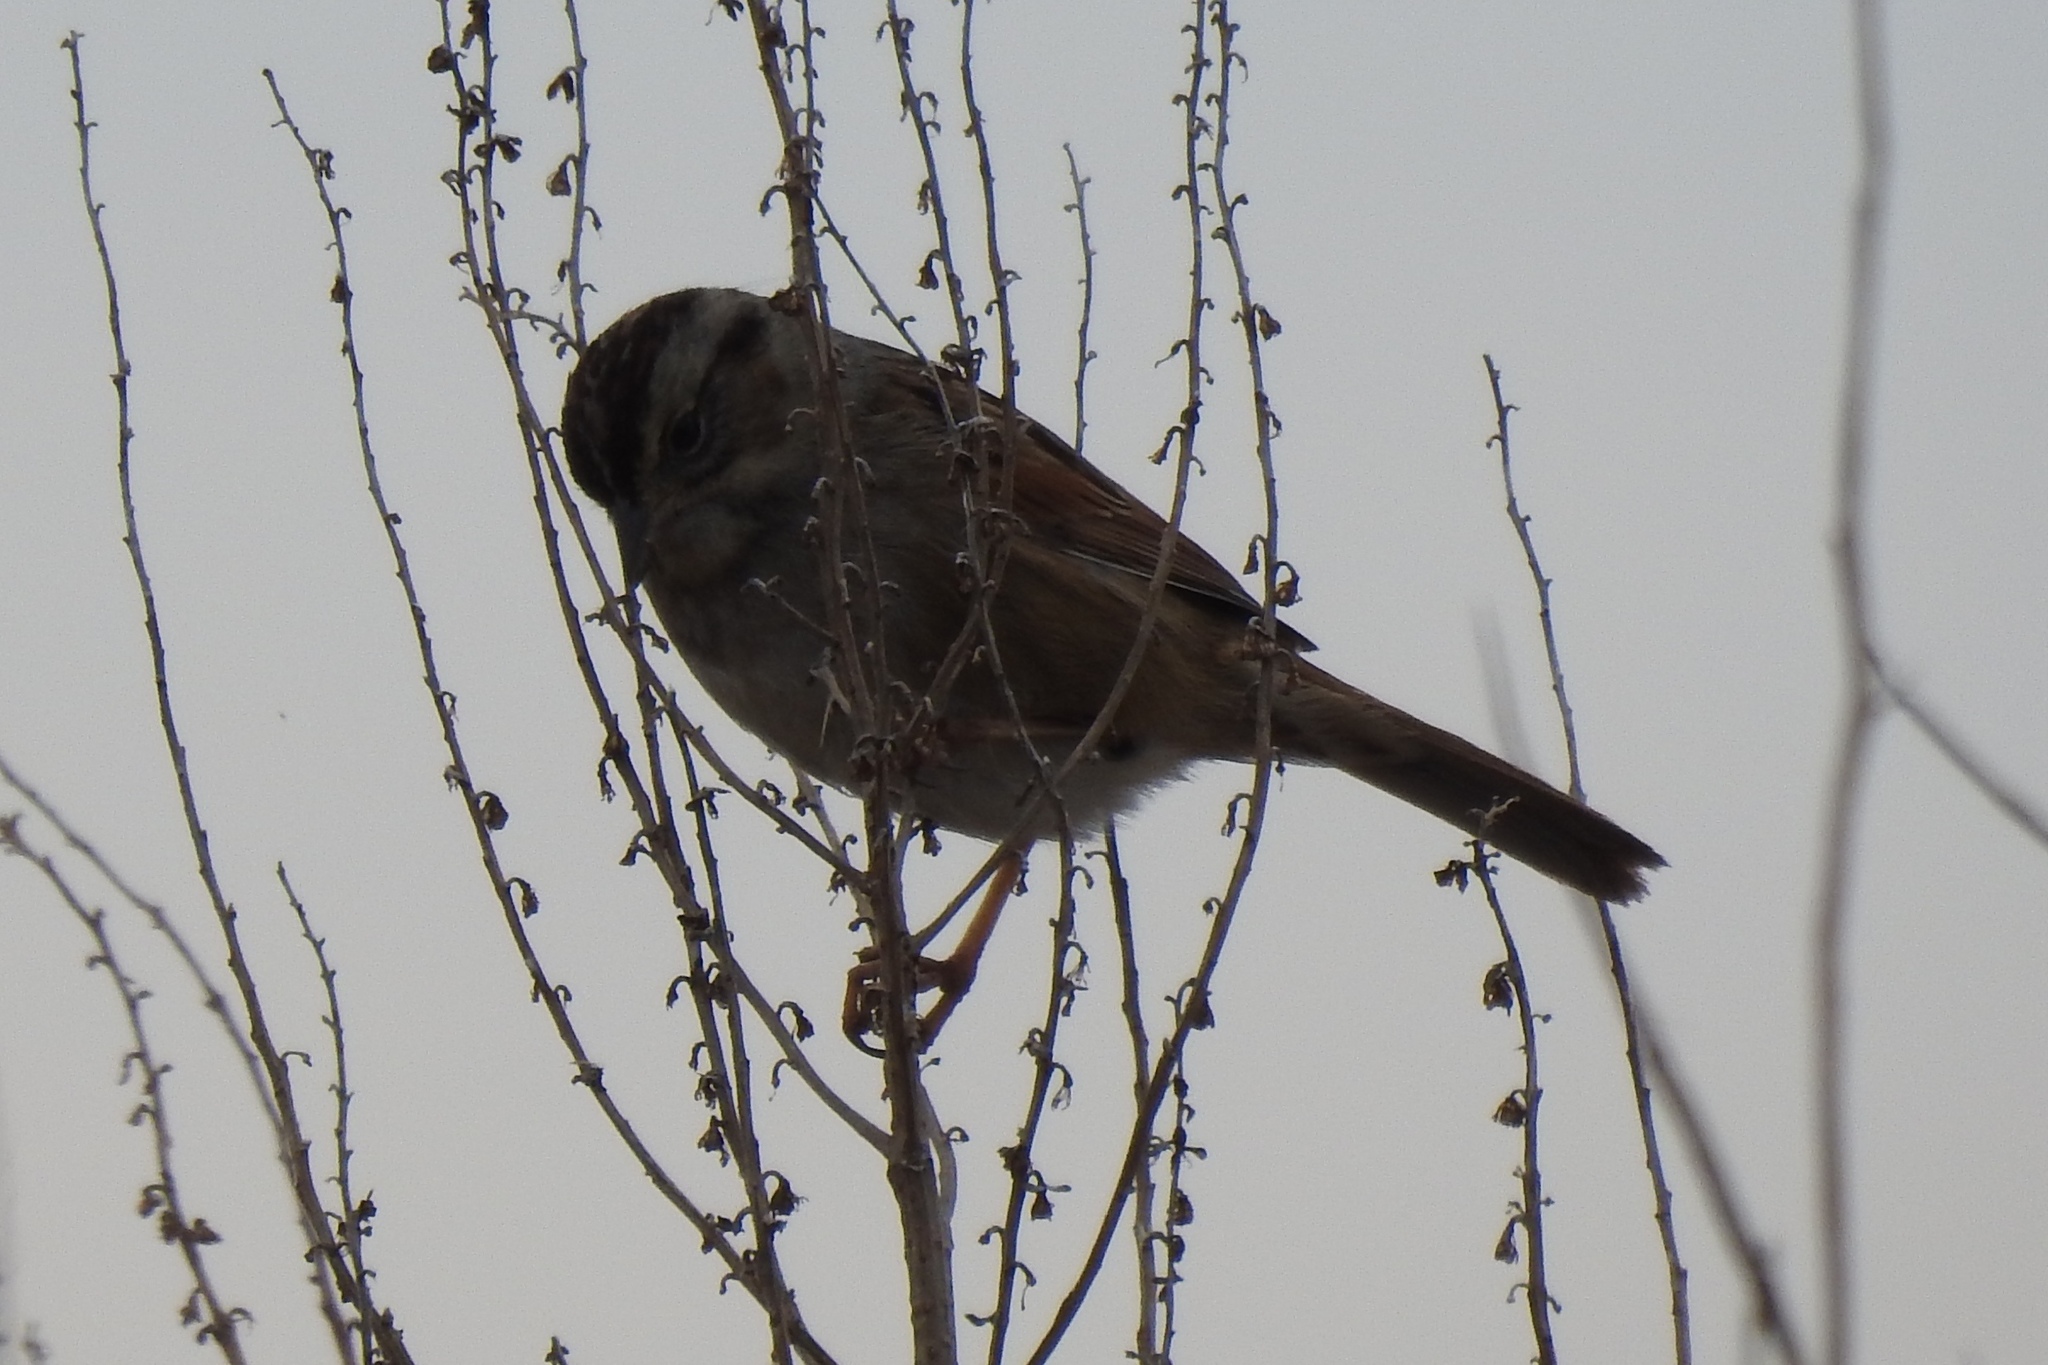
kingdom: Animalia
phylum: Chordata
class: Aves
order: Passeriformes
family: Passerellidae
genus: Zonotrichia
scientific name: Zonotrichia albicollis
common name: White-throated sparrow
